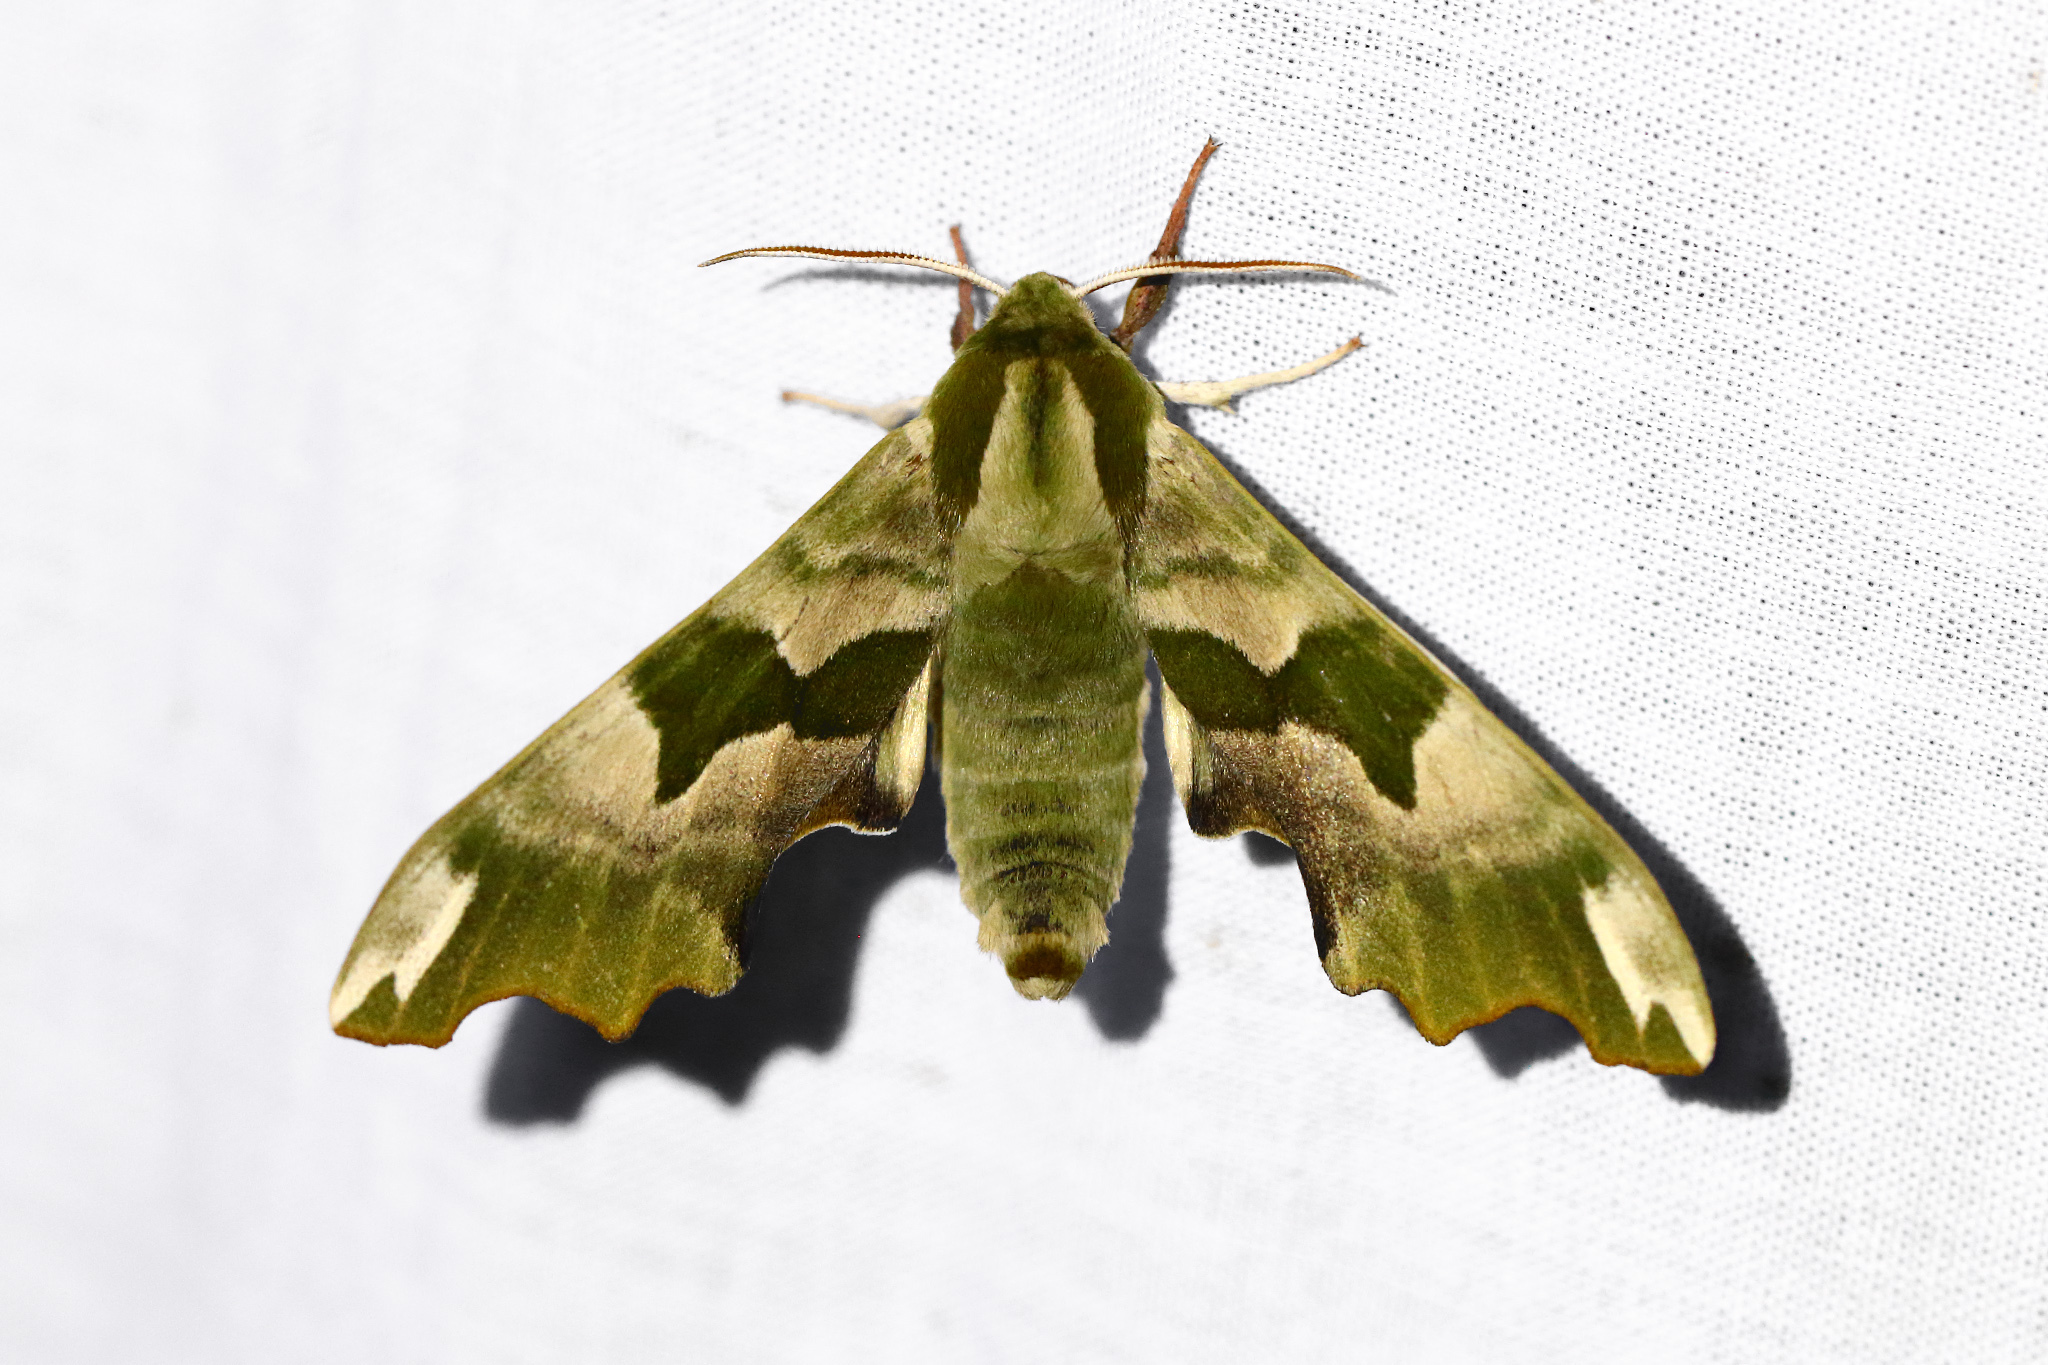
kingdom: Animalia
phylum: Arthropoda
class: Insecta
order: Lepidoptera
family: Sphingidae
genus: Mimas
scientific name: Mimas tiliae
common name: Lime hawk-moth
